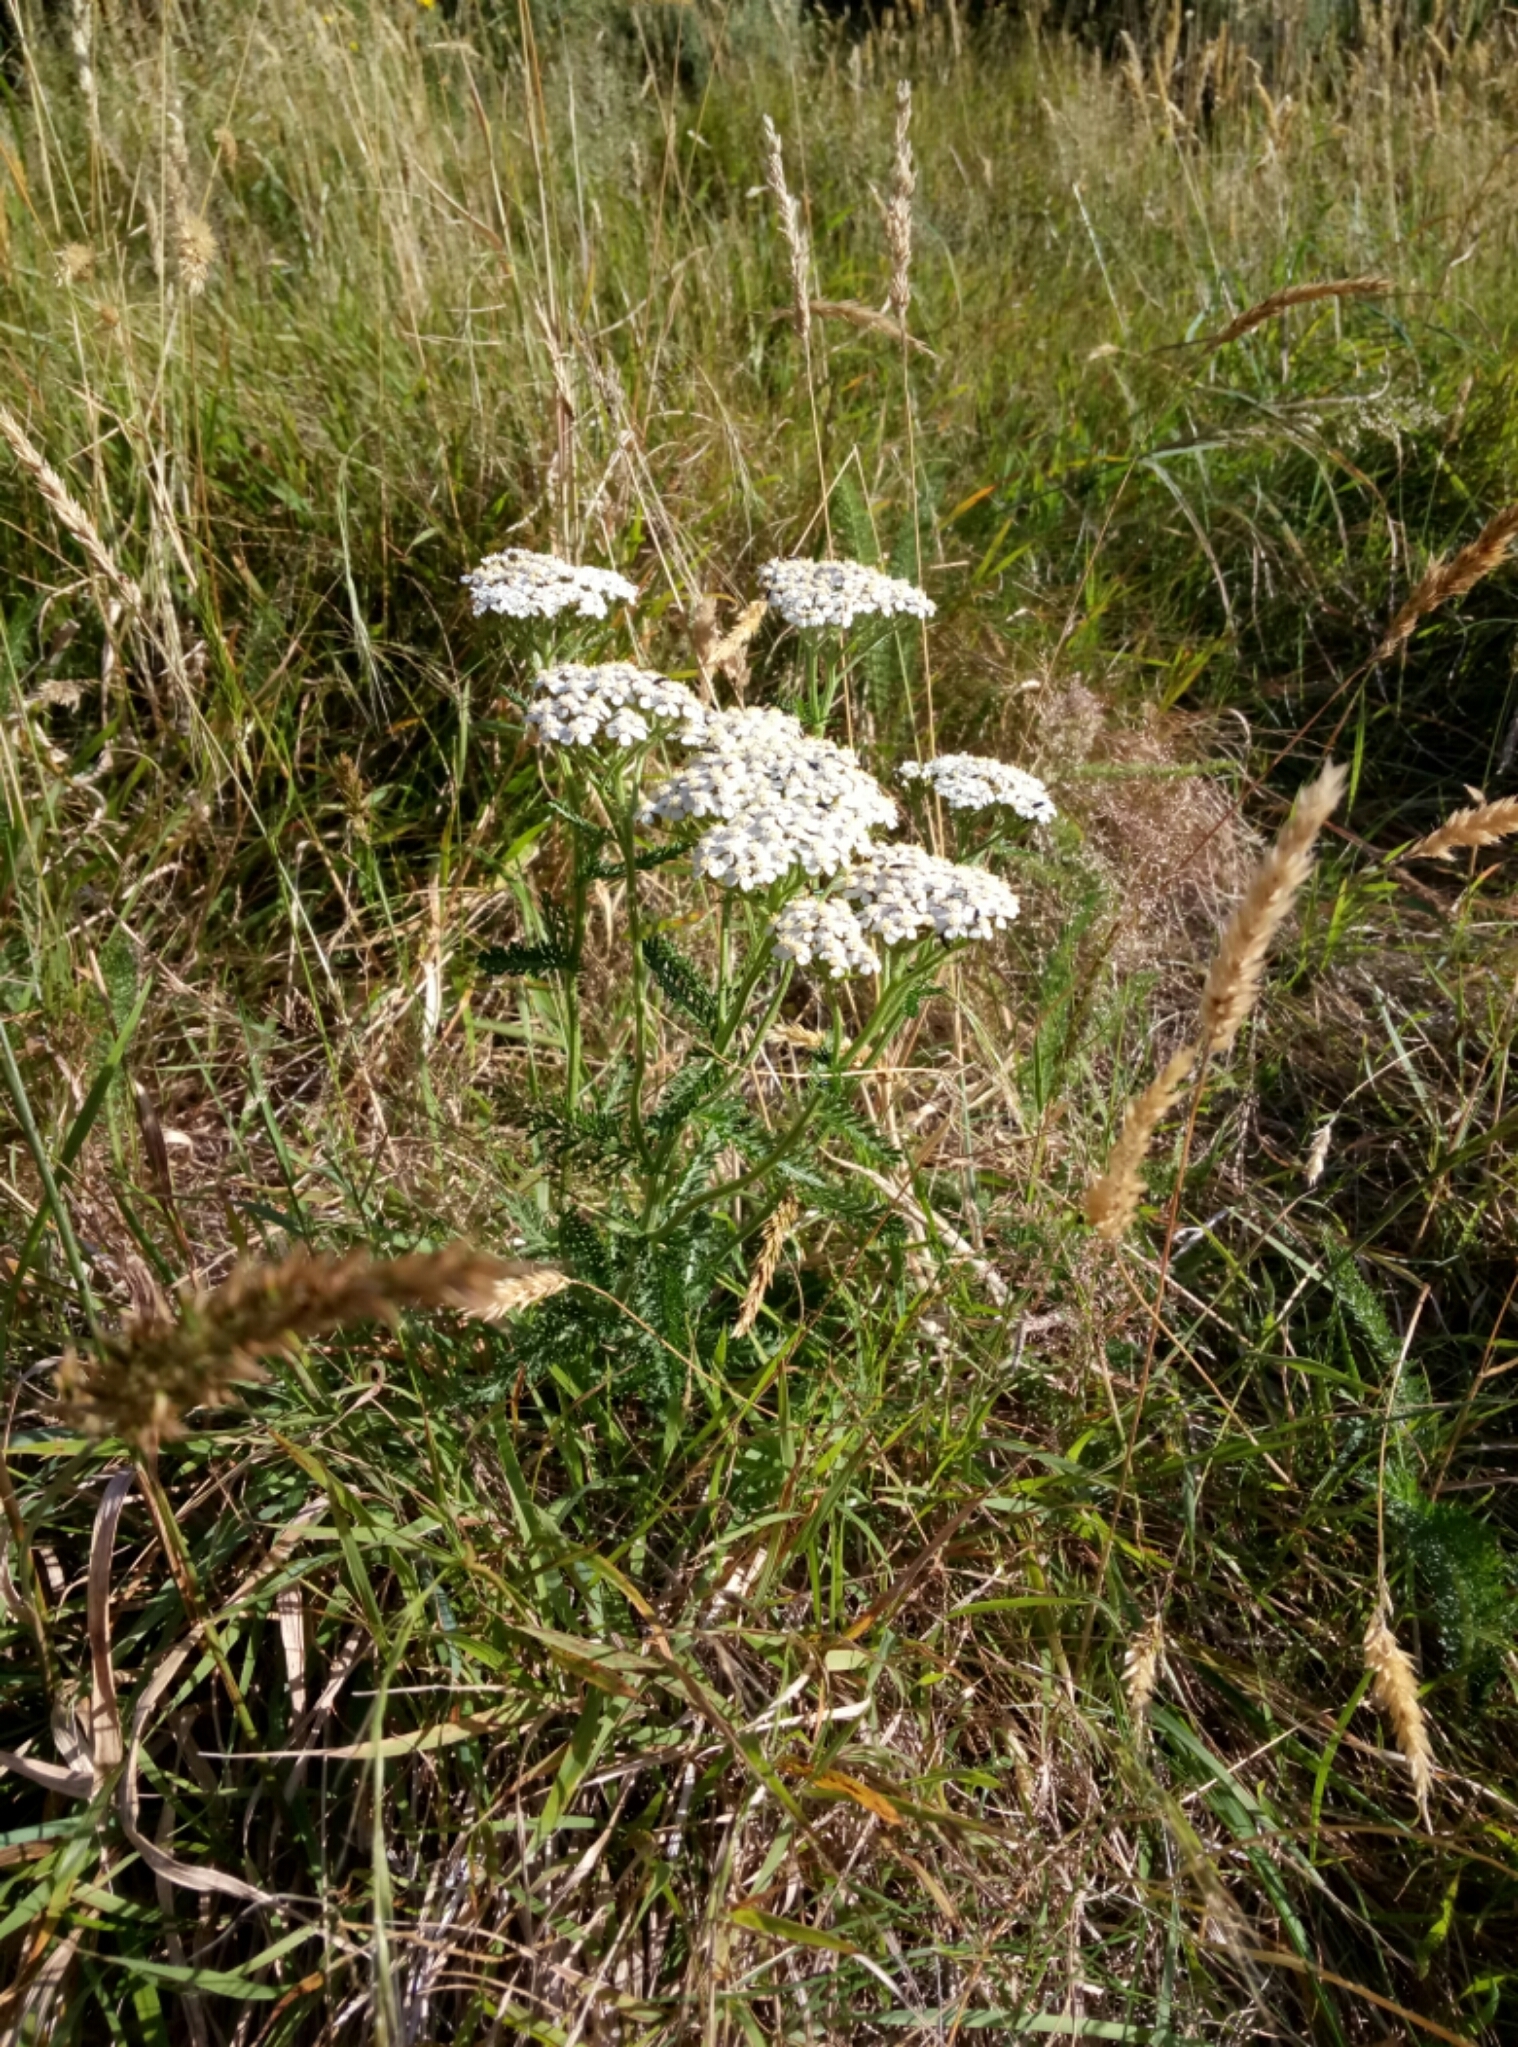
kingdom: Plantae
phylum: Tracheophyta
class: Magnoliopsida
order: Asterales
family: Asteraceae
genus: Achillea
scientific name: Achillea millefolium
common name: Yarrow
